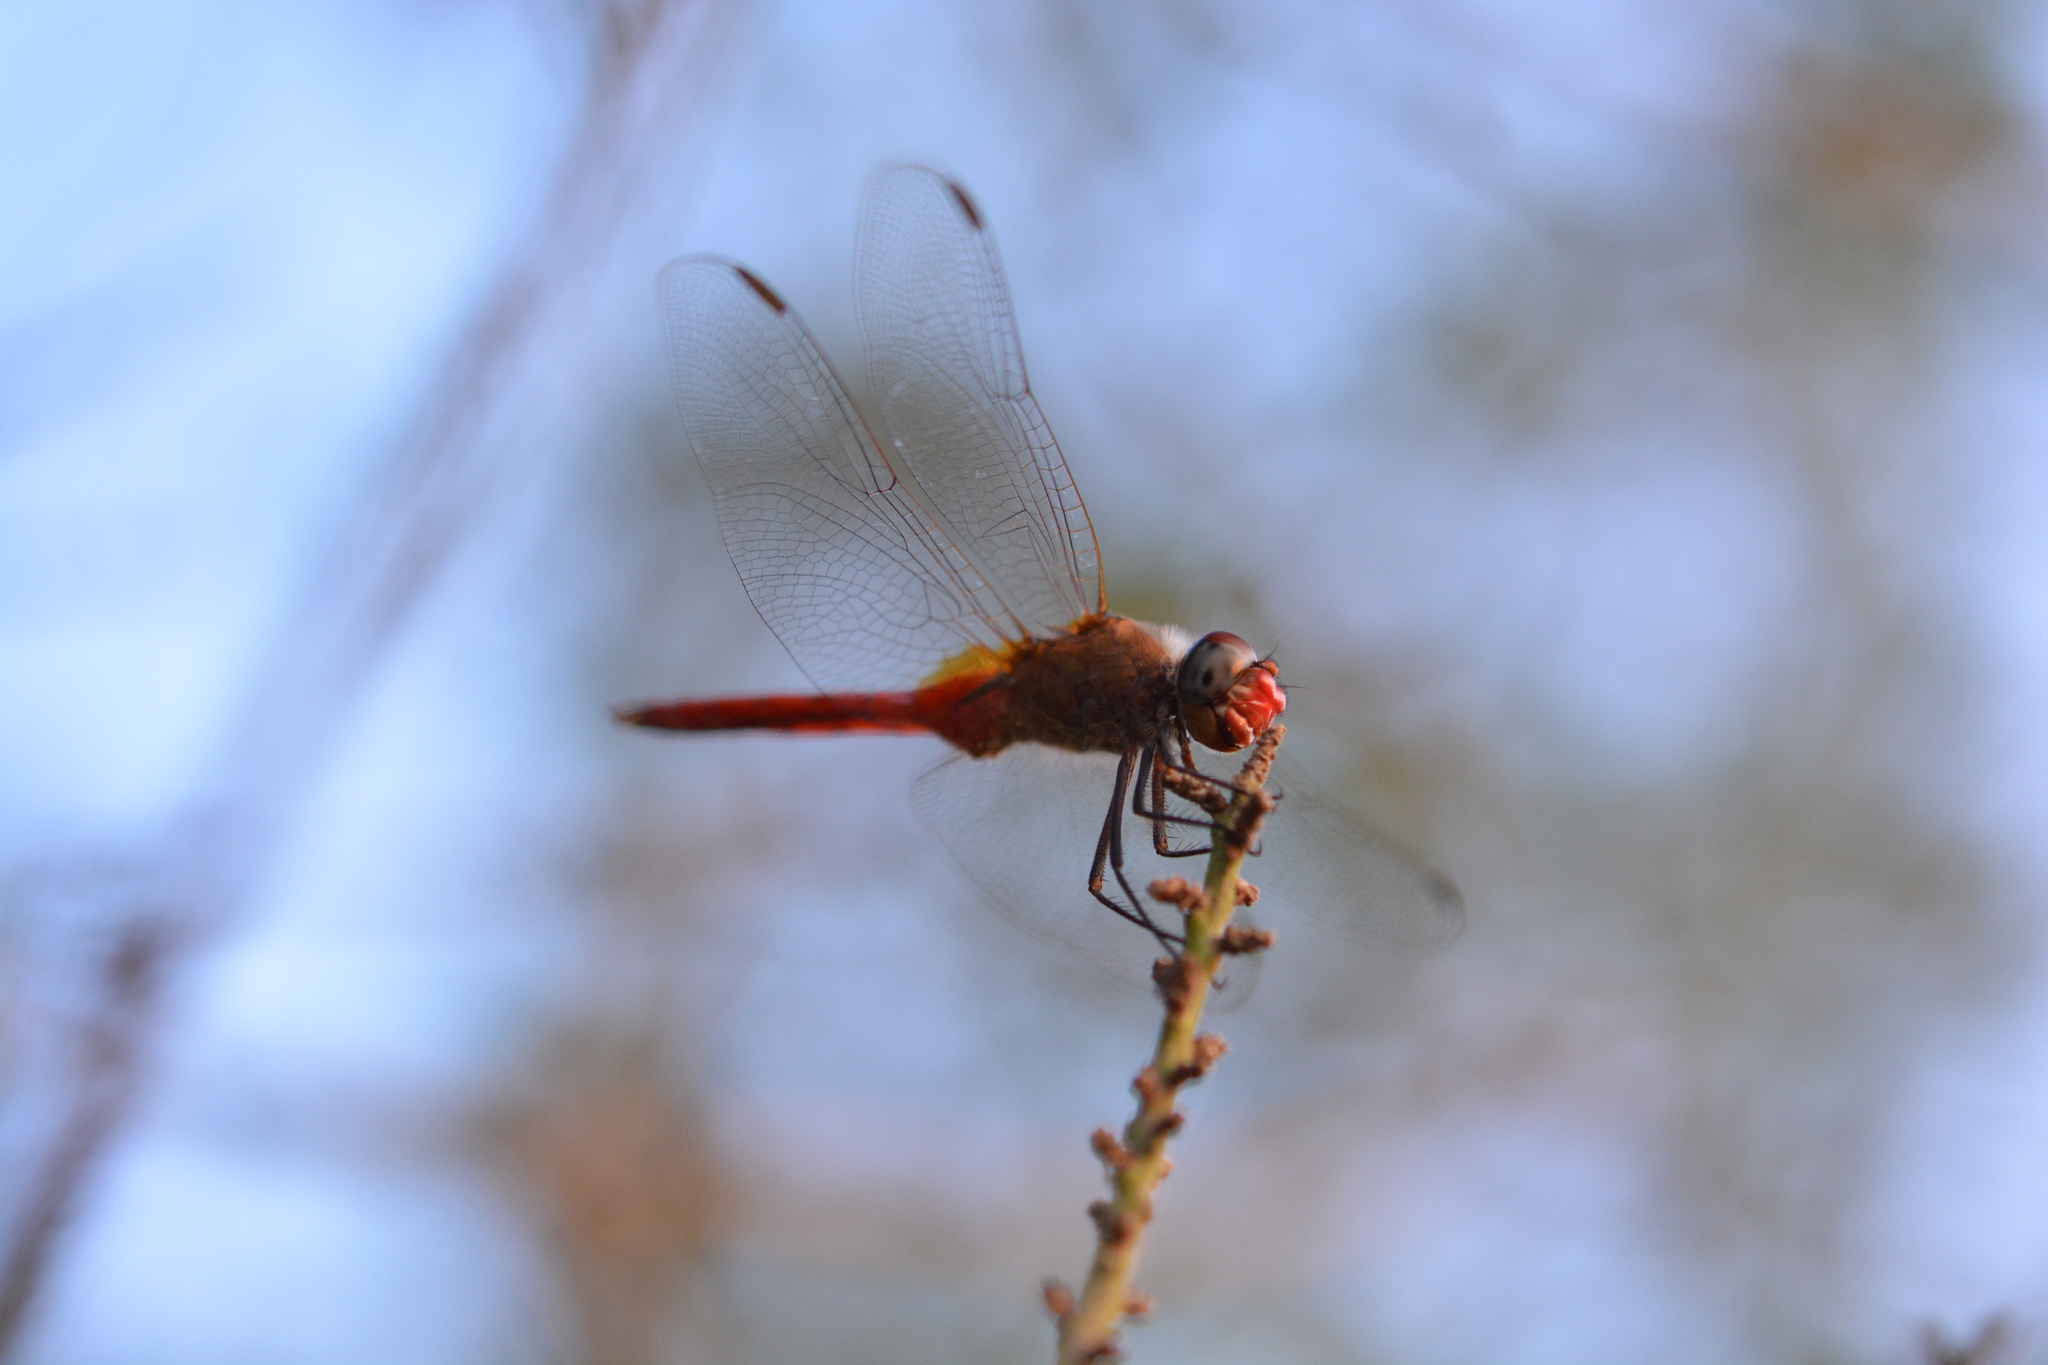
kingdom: Animalia
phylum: Arthropoda
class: Insecta
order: Odonata
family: Libellulidae
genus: Brachymesia
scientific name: Brachymesia furcata
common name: Red-taled pennant
